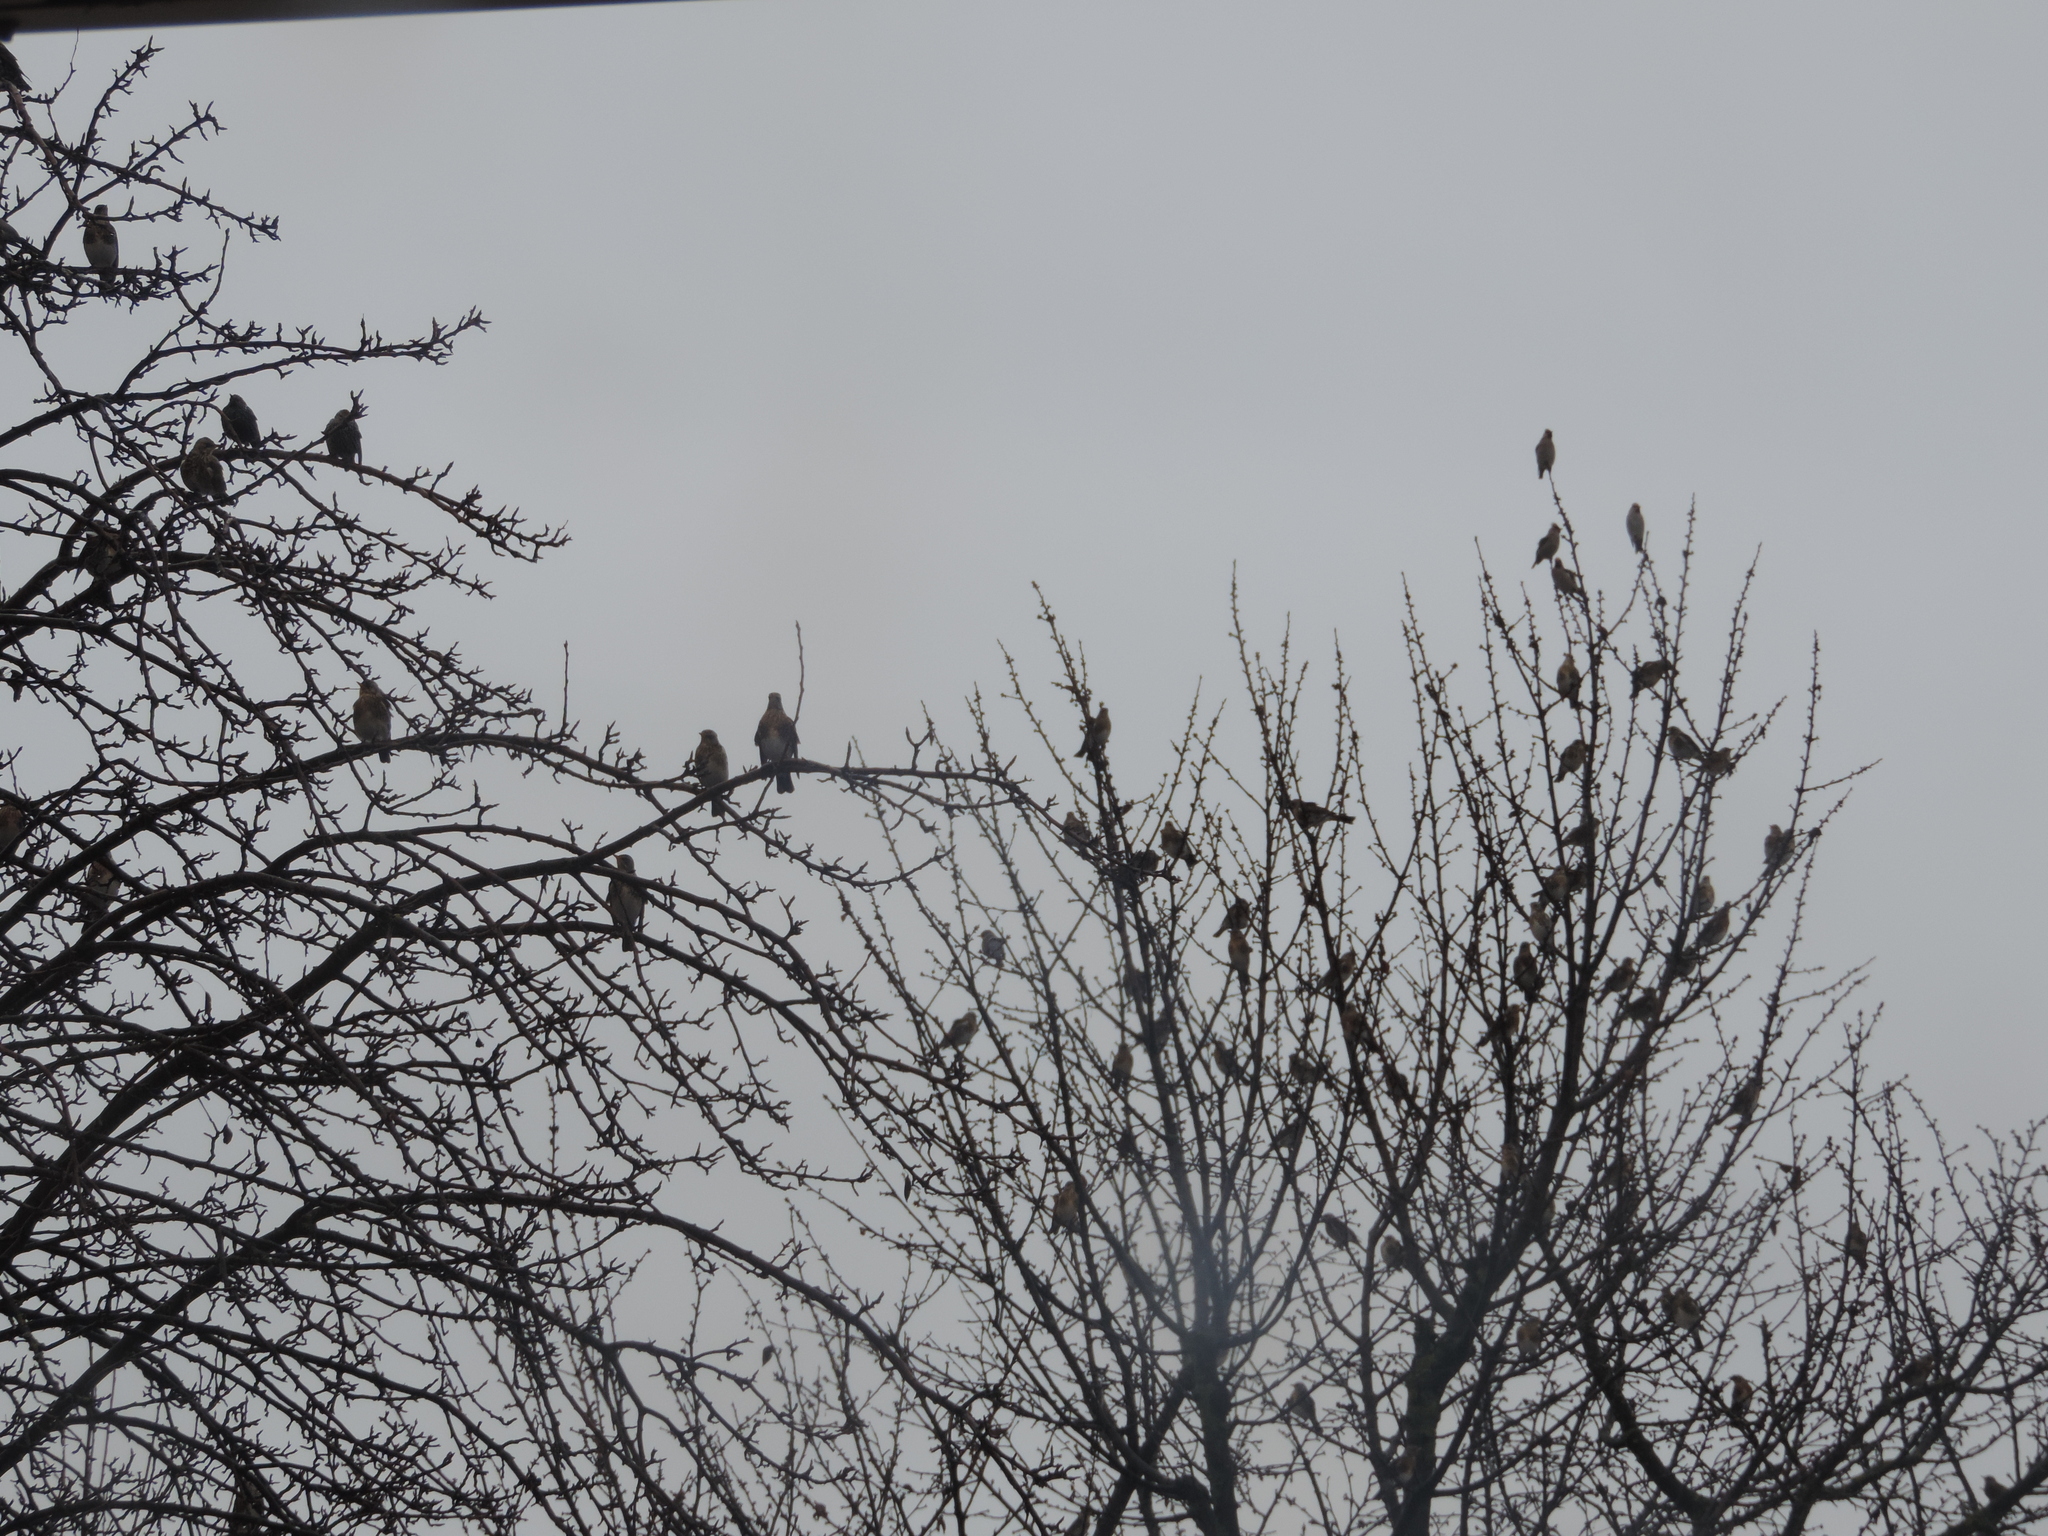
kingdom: Animalia
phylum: Chordata
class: Aves
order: Passeriformes
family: Bombycillidae
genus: Bombycilla
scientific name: Bombycilla garrulus
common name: Bohemian waxwing
